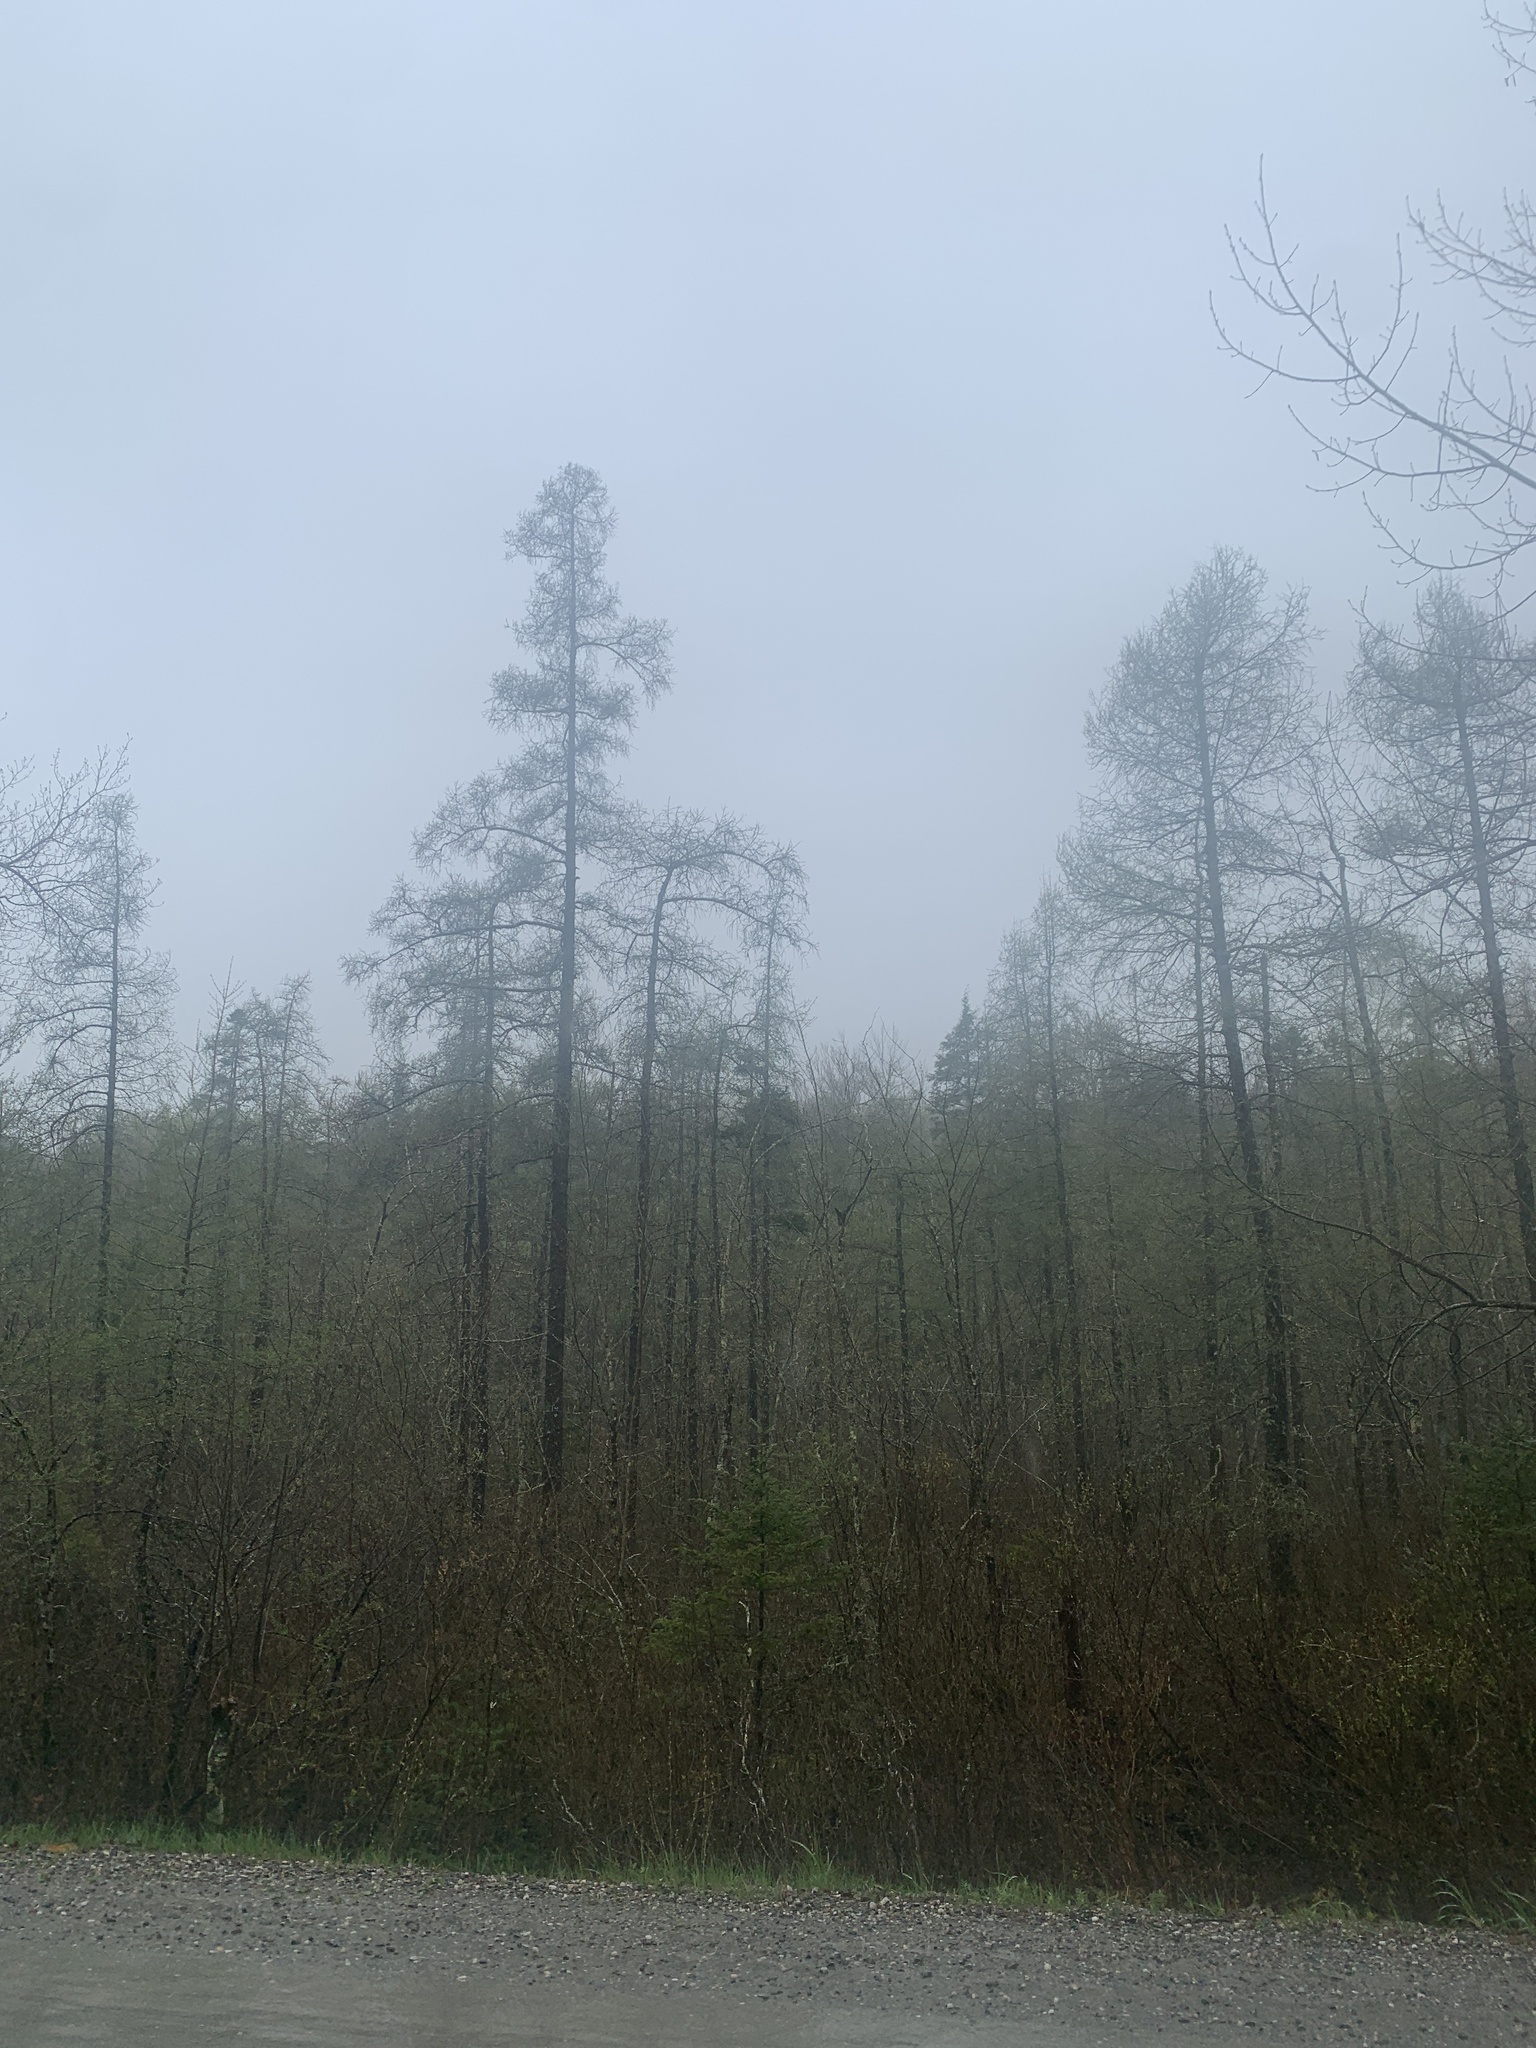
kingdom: Plantae
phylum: Tracheophyta
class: Pinopsida
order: Pinales
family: Pinaceae
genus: Larix
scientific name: Larix laricina
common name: American larch
